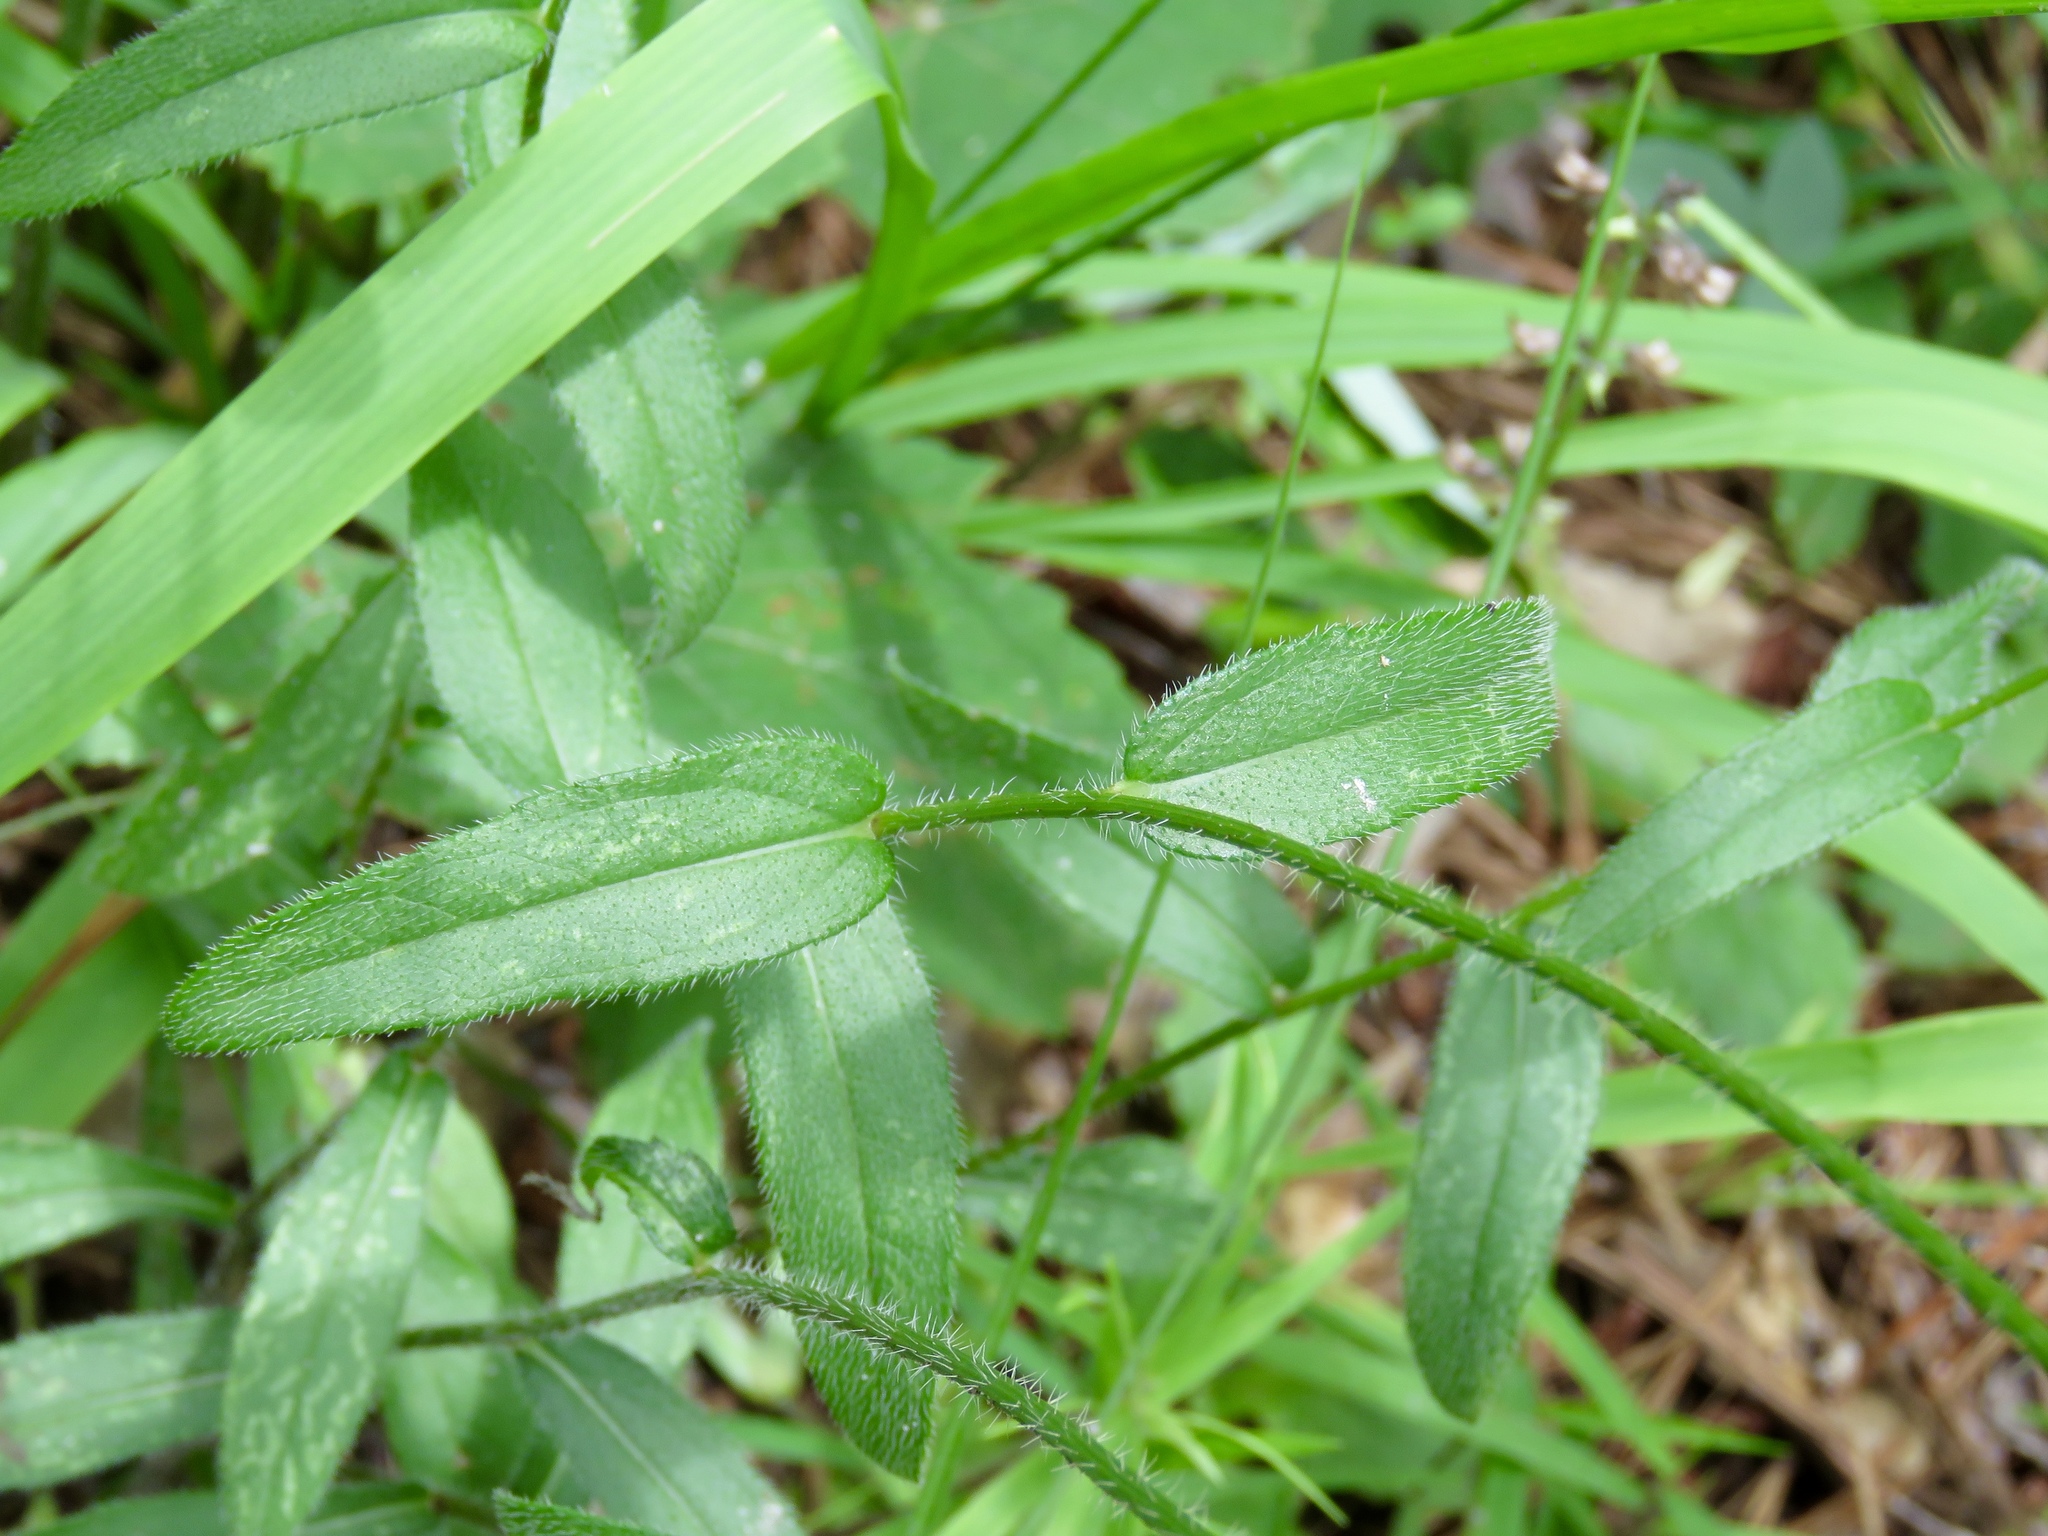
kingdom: Plantae
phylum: Tracheophyta
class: Magnoliopsida
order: Asterales
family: Asteraceae
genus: Rudbeckia
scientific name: Rudbeckia hirta
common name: Black-eyed-susan
